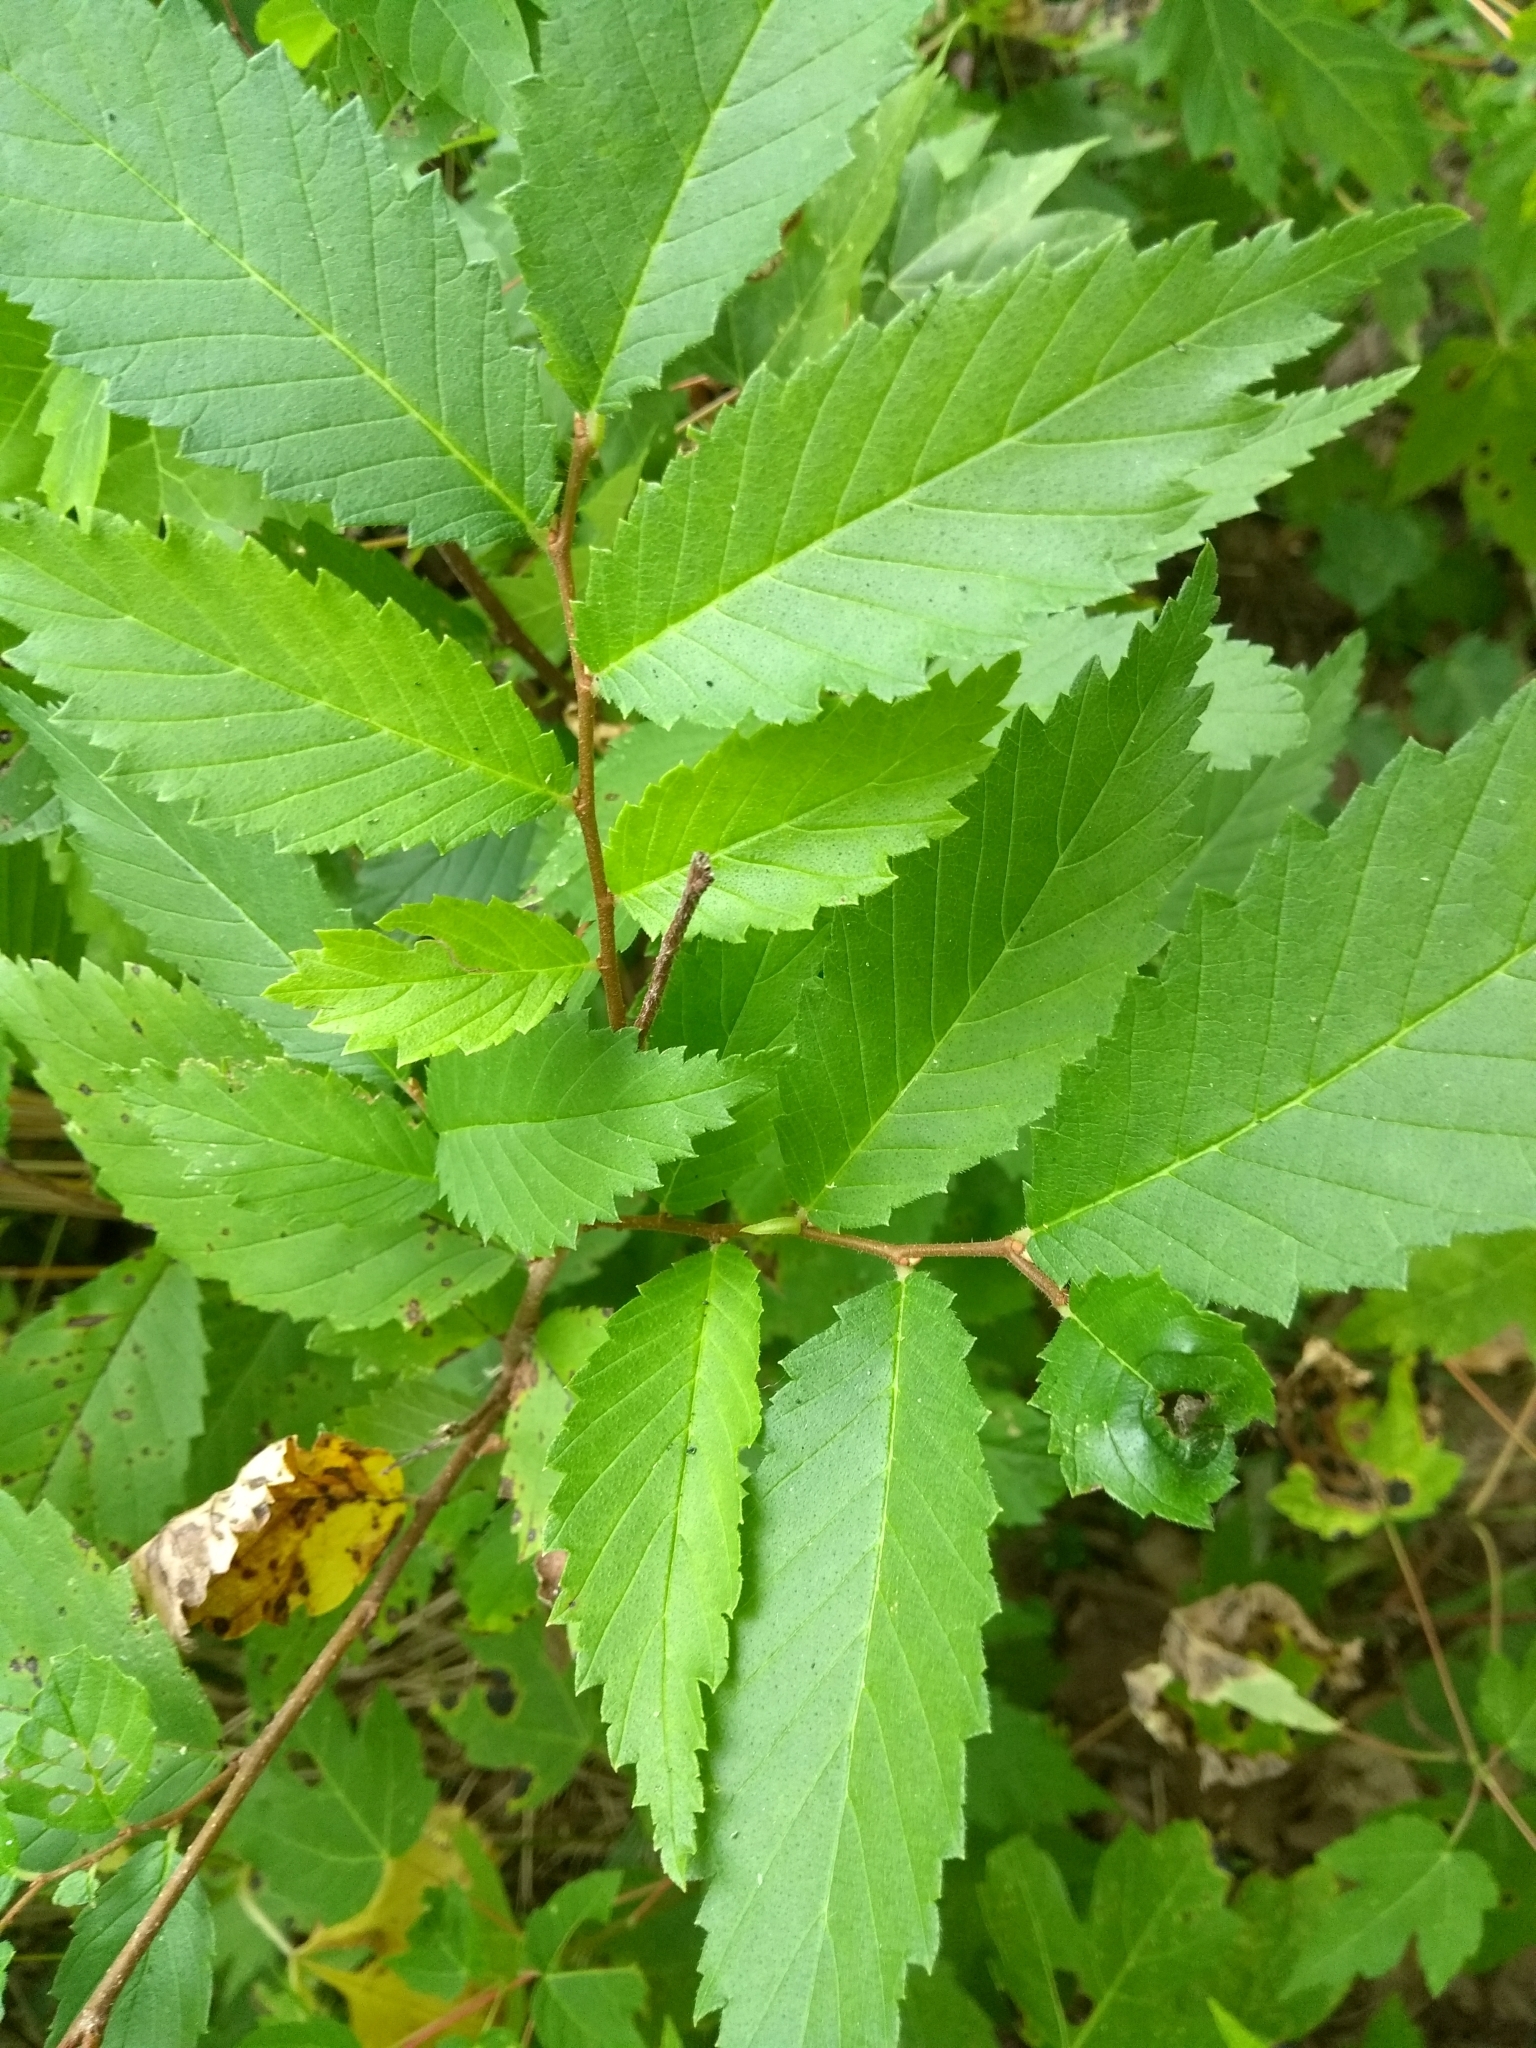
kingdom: Plantae
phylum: Tracheophyta
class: Magnoliopsida
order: Rosales
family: Ulmaceae
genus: Ulmus
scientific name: Ulmus pumila
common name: Siberian elm
